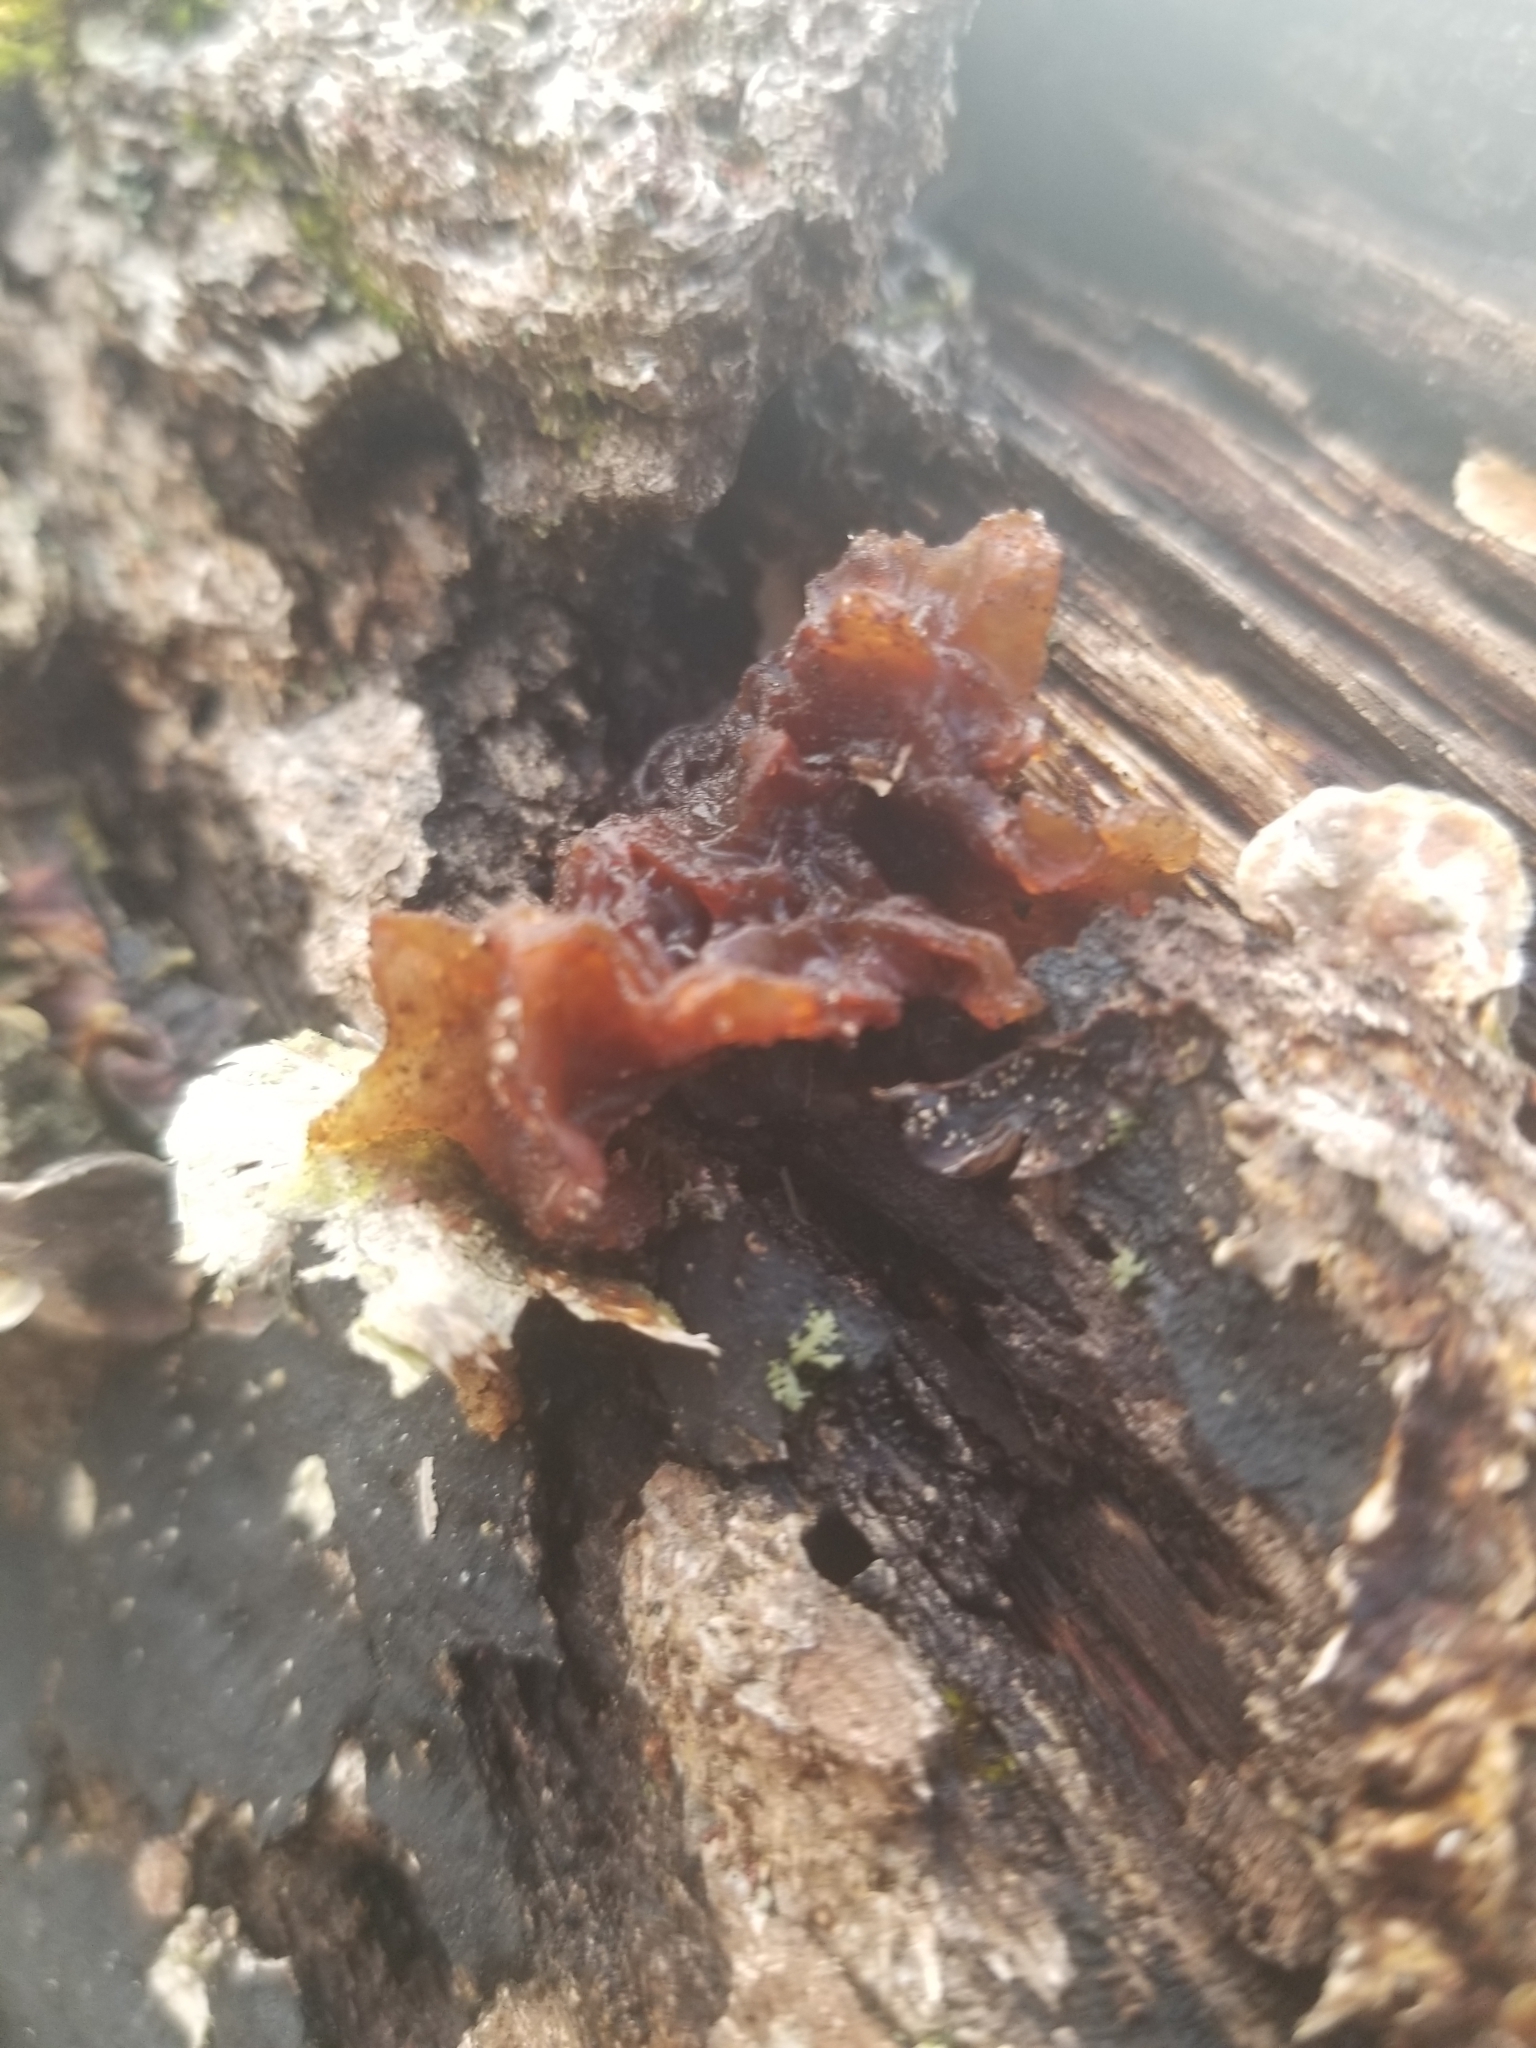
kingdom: Fungi
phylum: Basidiomycota
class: Agaricomycetes
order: Auriculariales
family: Auriculariaceae
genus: Exidia
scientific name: Exidia
